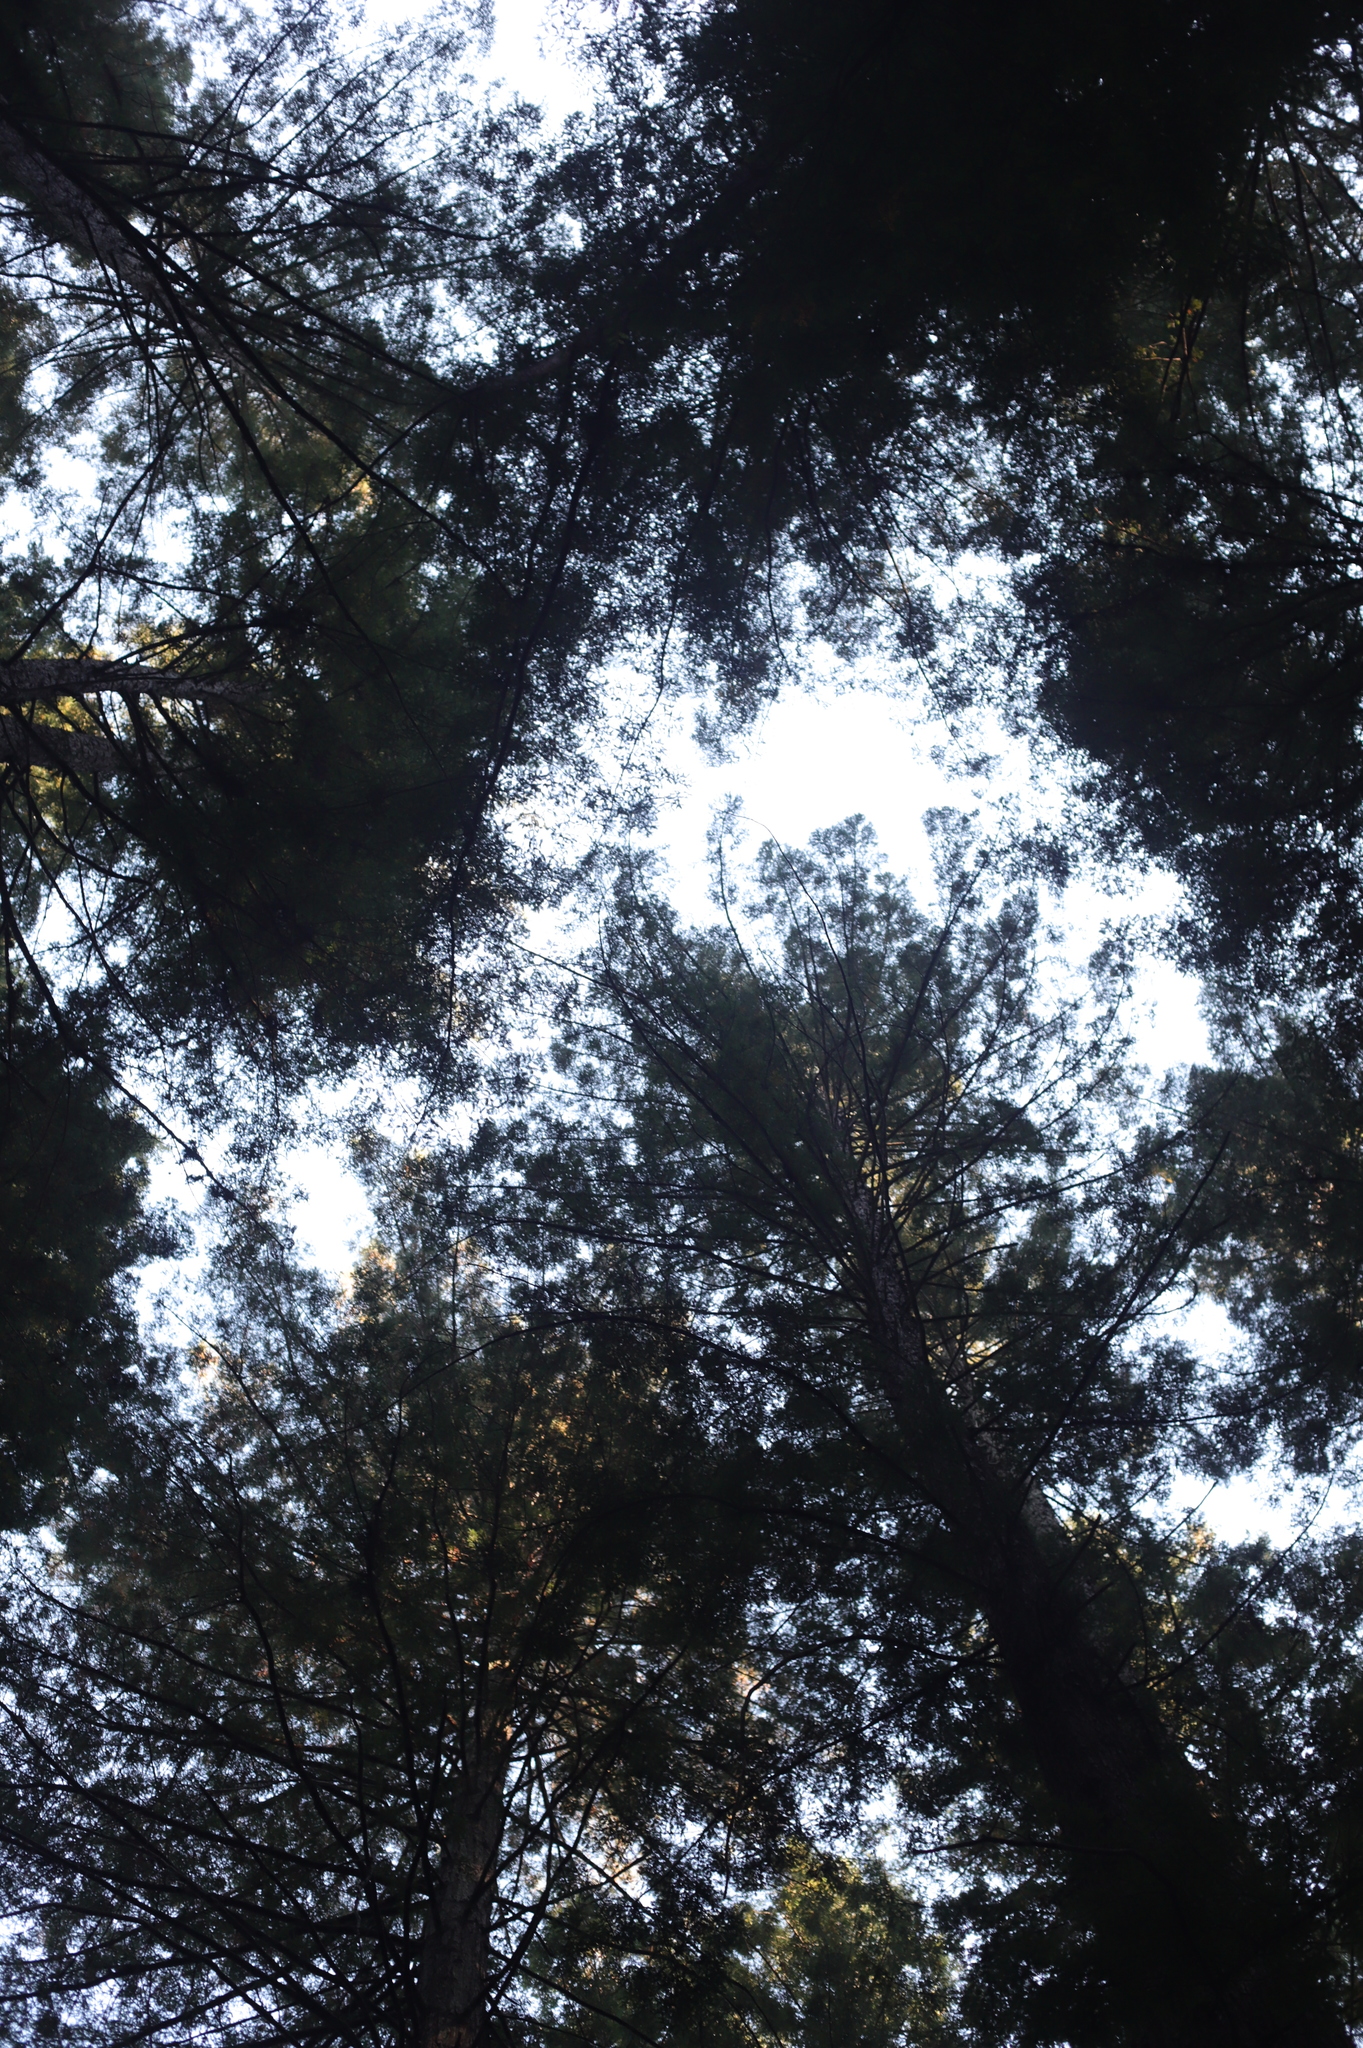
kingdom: Plantae
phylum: Tracheophyta
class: Pinopsida
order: Pinales
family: Cupressaceae
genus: Sequoia
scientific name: Sequoia sempervirens
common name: Coast redwood
